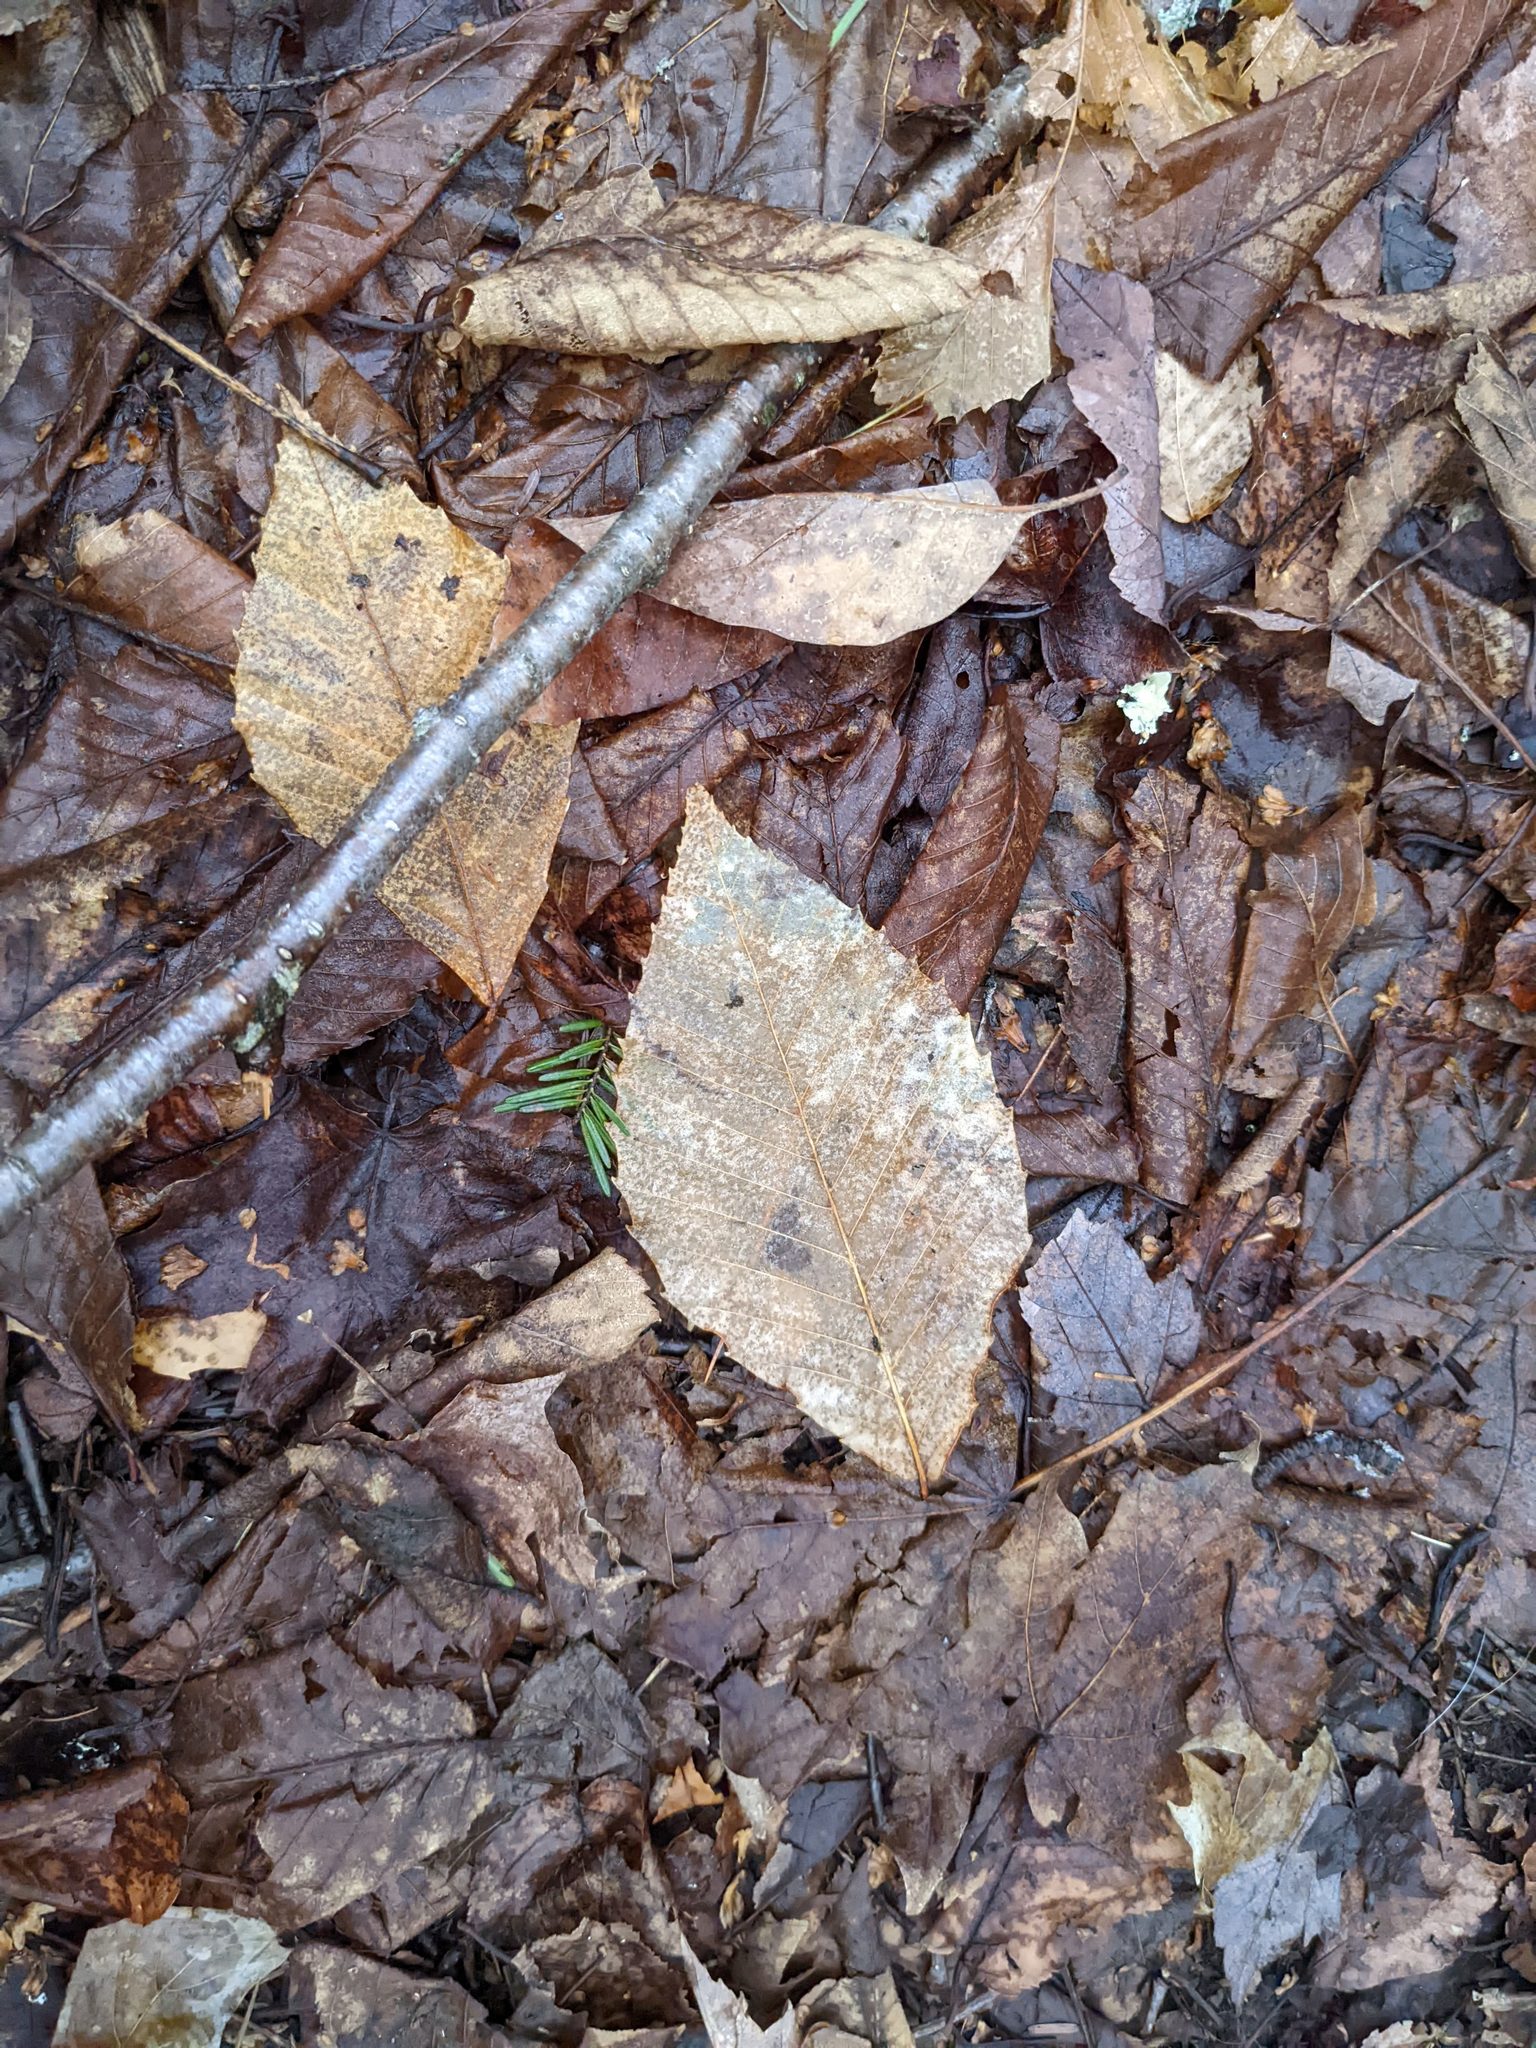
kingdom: Plantae
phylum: Tracheophyta
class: Magnoliopsida
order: Fagales
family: Fagaceae
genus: Fagus
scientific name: Fagus grandifolia
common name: American beech
